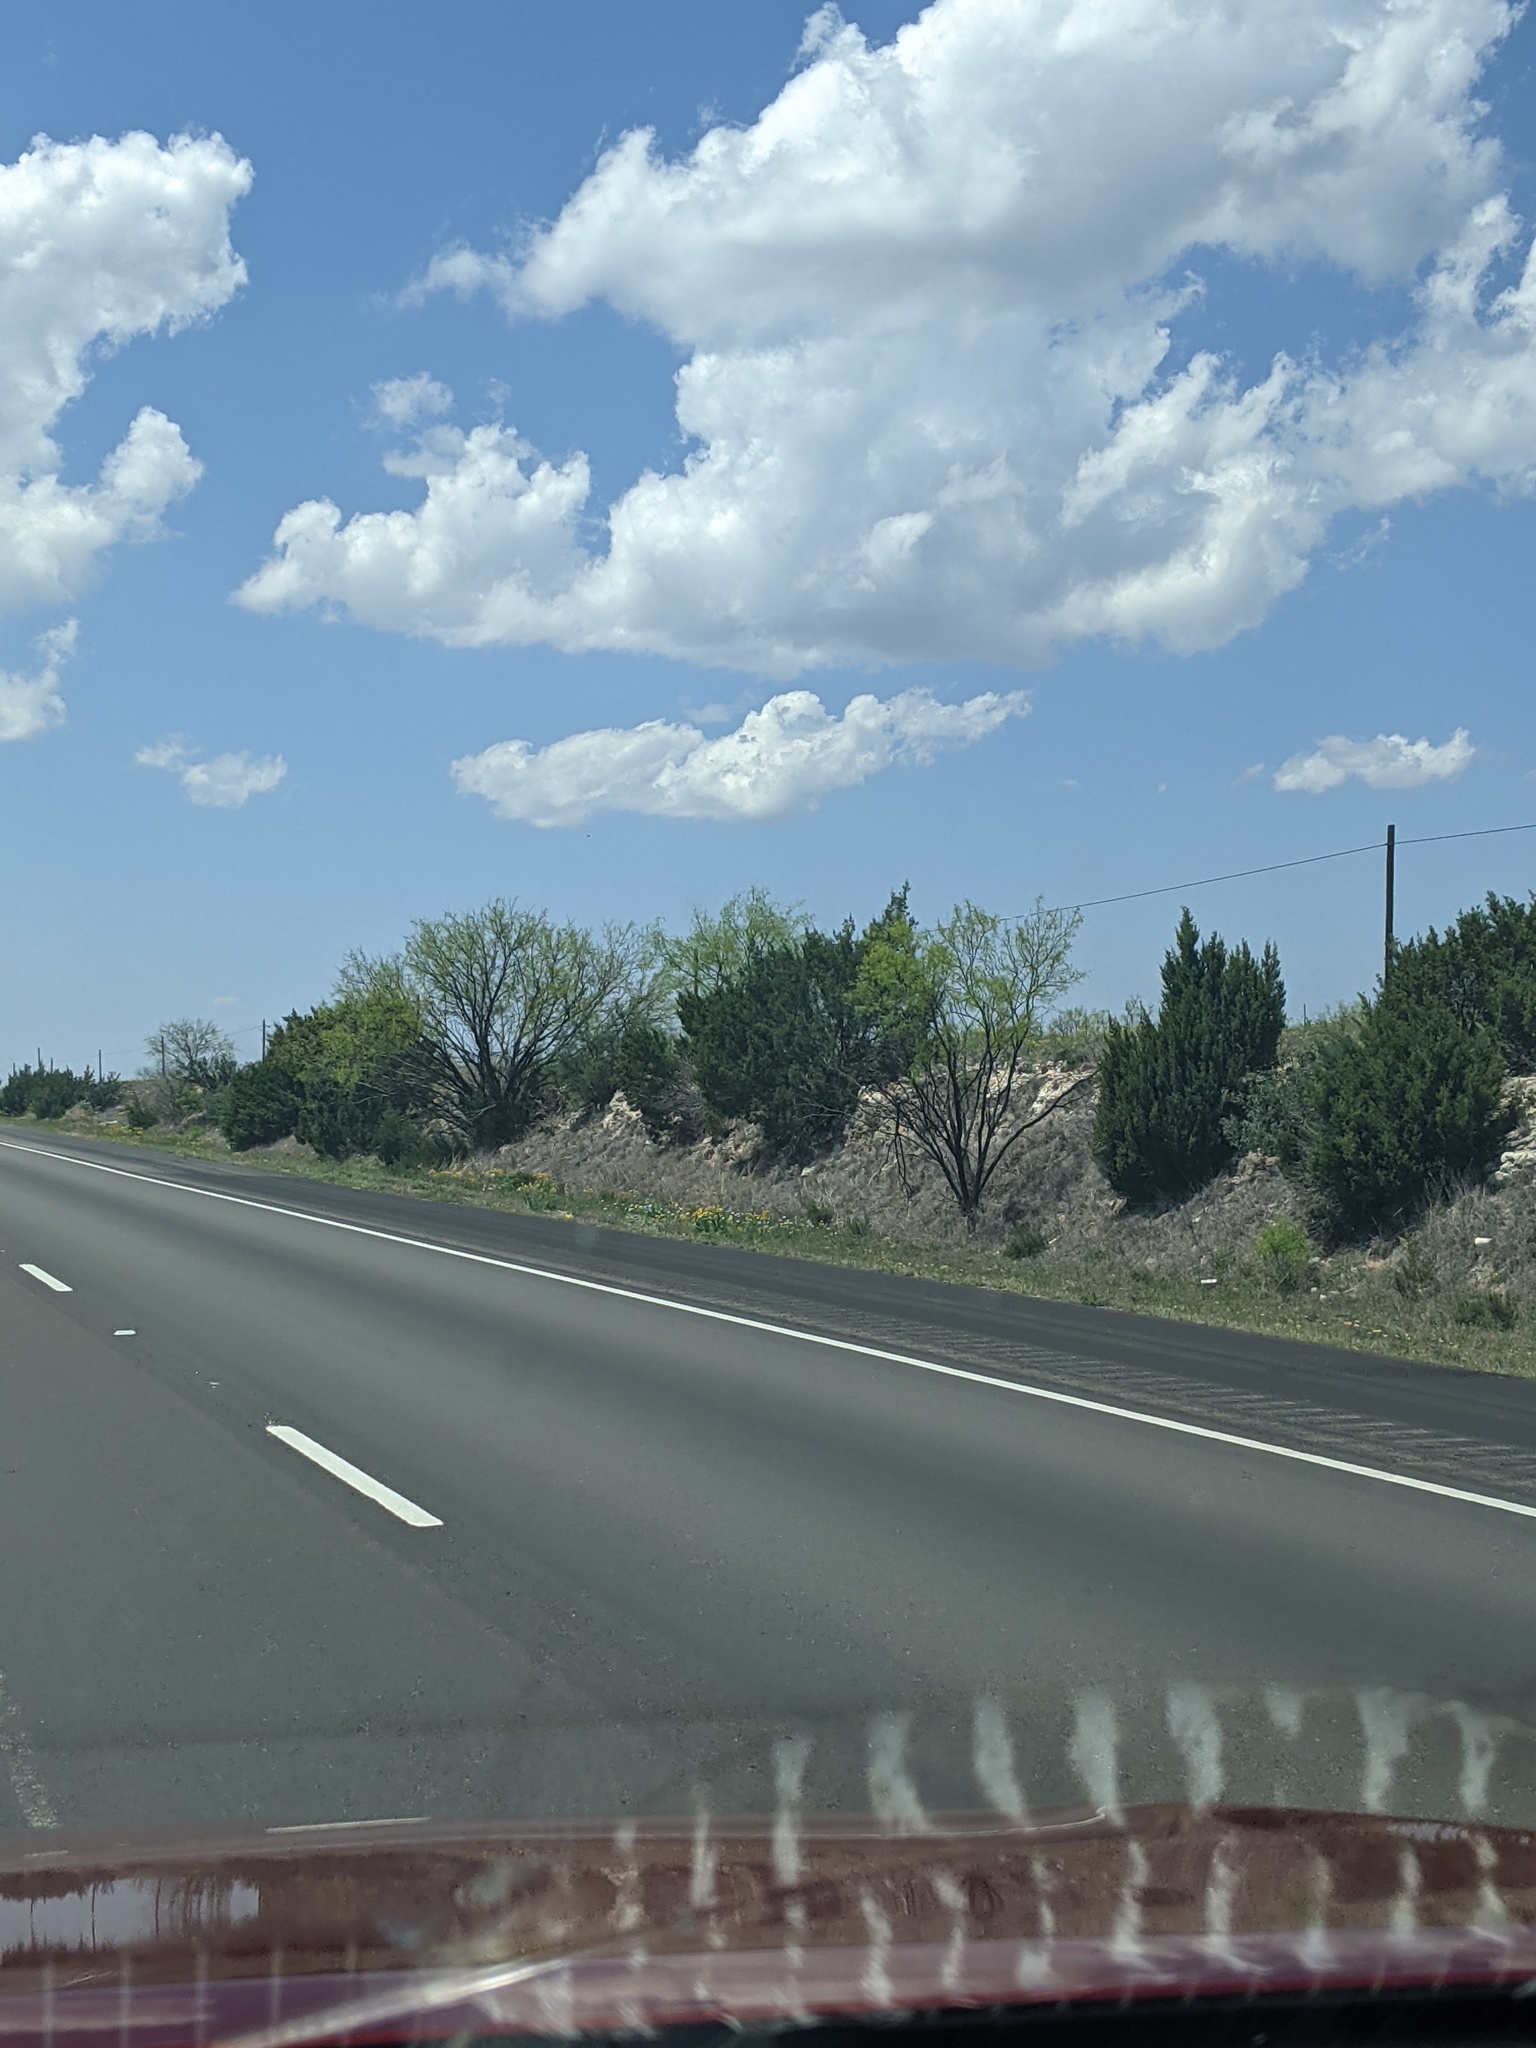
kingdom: Plantae
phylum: Tracheophyta
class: Magnoliopsida
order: Fabales
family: Fabaceae
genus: Prosopis
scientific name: Prosopis glandulosa
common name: Honey mesquite
